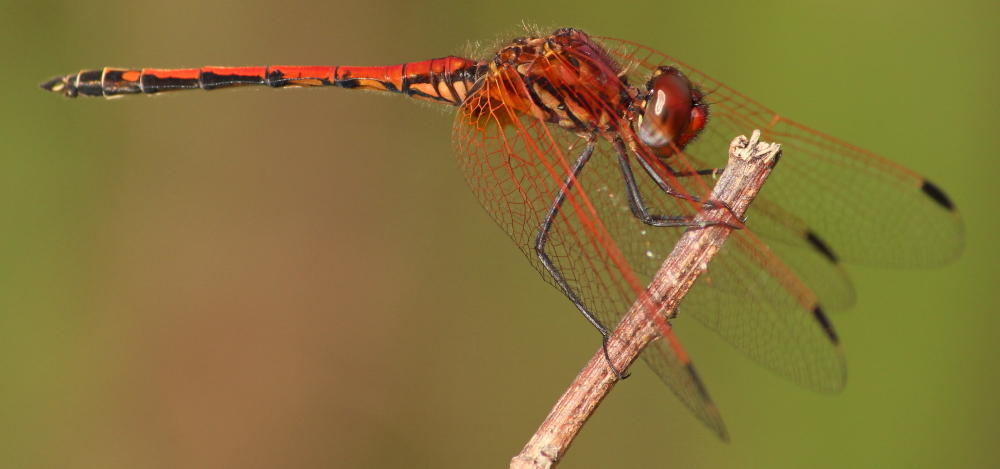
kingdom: Animalia
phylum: Arthropoda
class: Insecta
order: Odonata
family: Libellulidae
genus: Trithemis
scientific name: Trithemis arteriosa
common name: Red-veined dropwing
